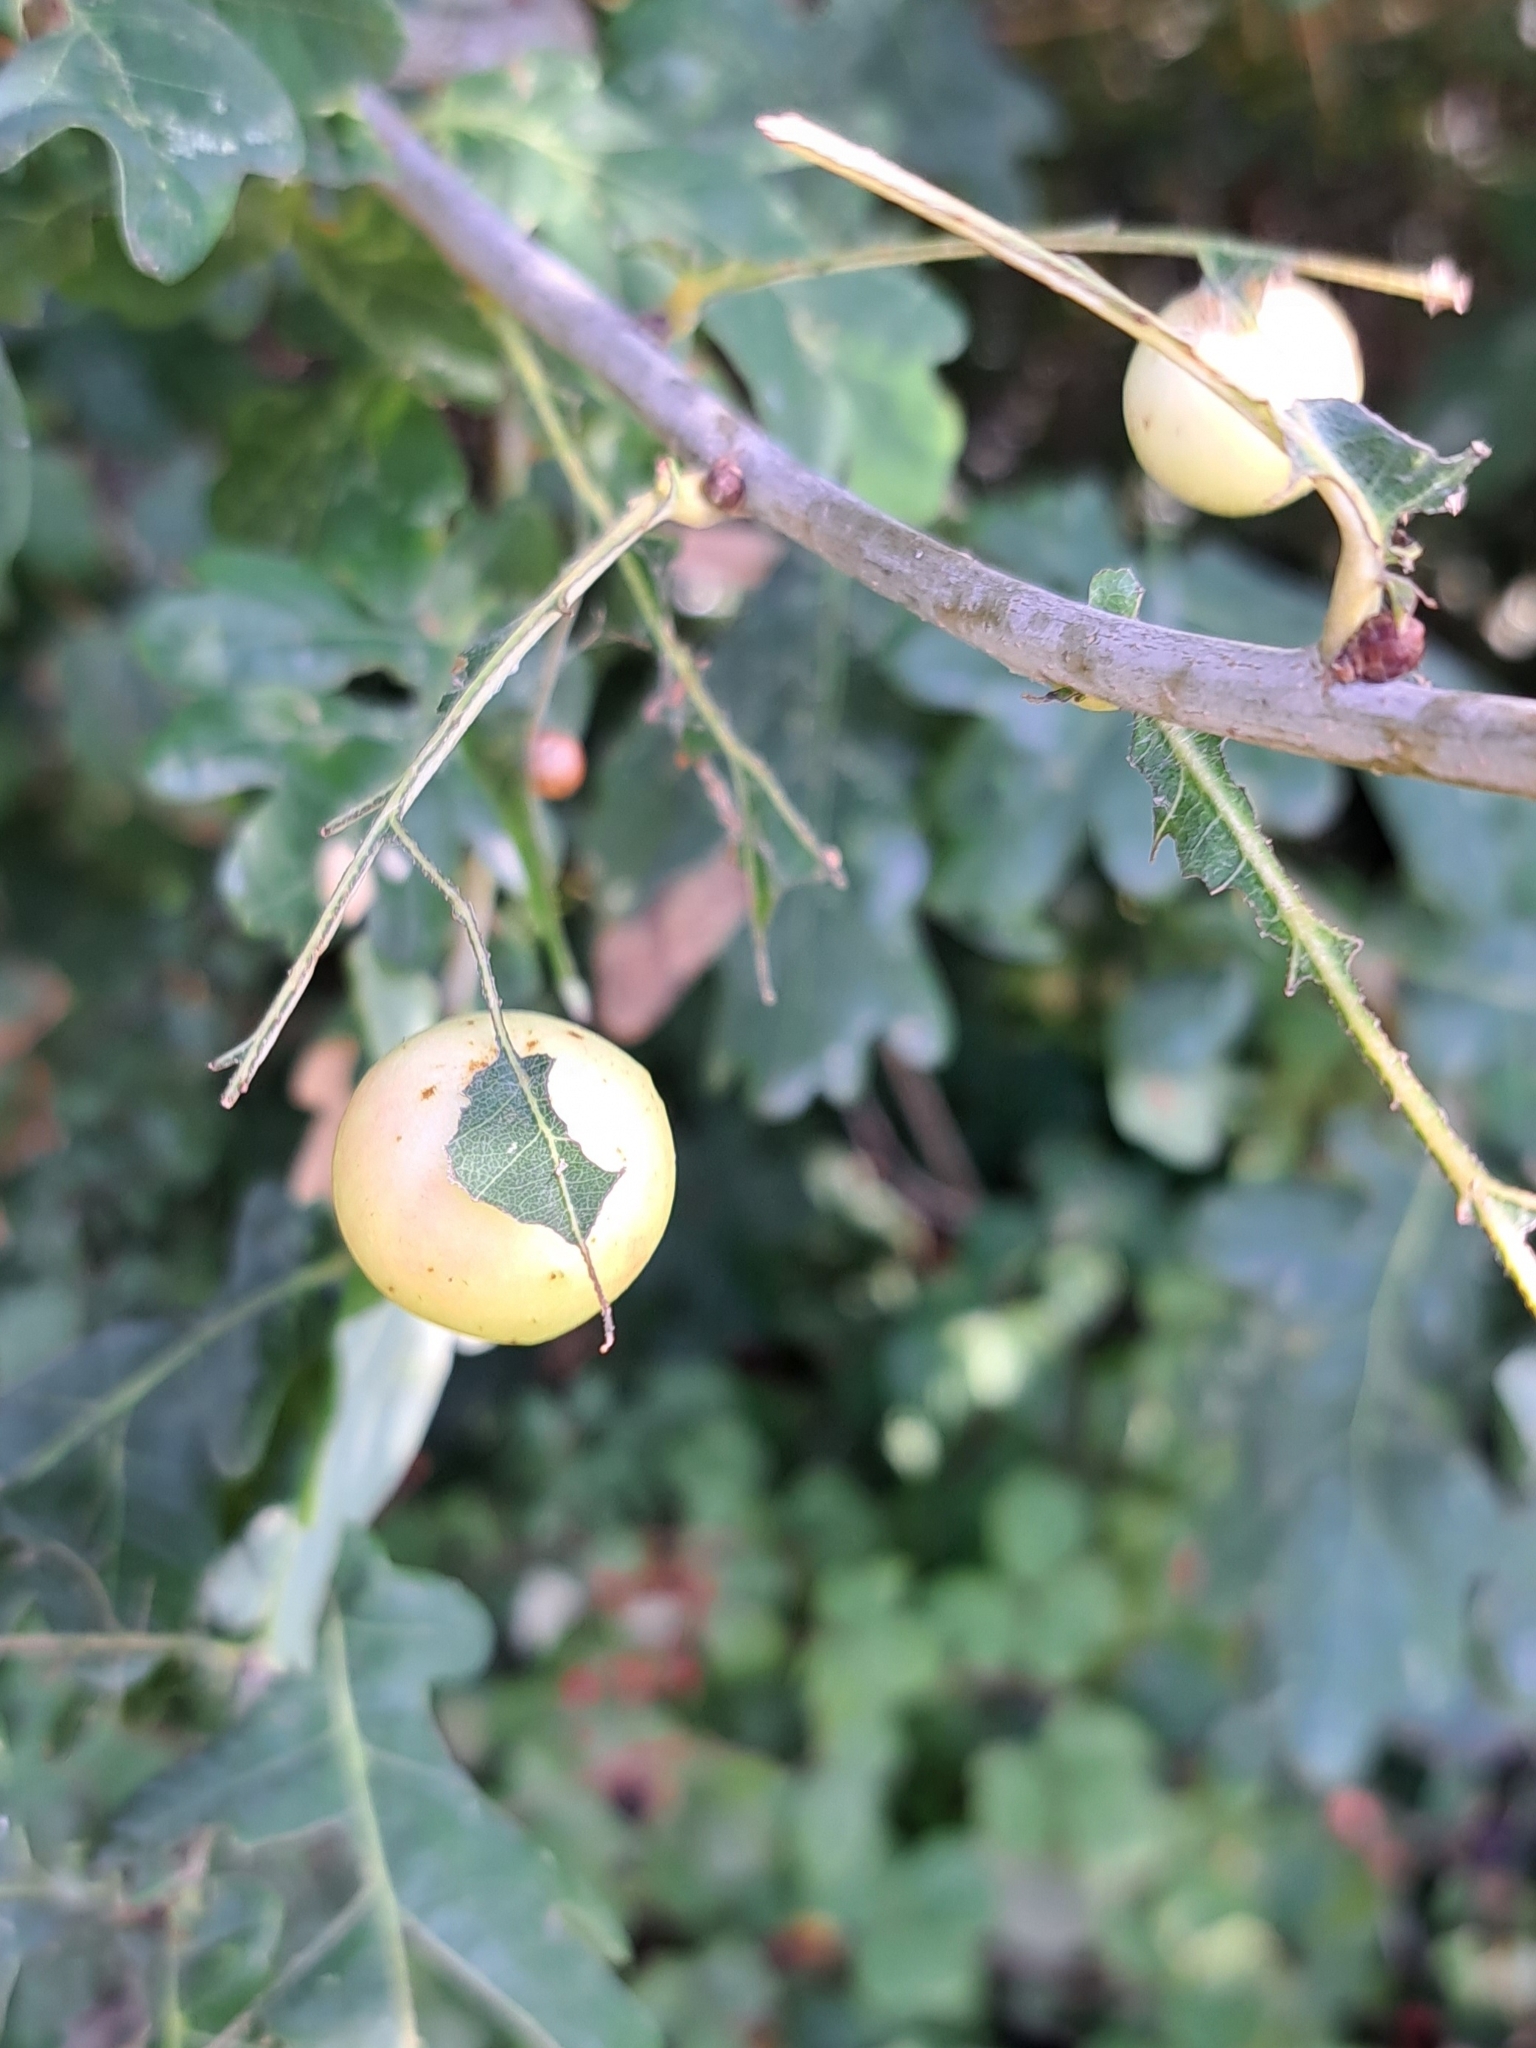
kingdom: Animalia
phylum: Arthropoda
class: Insecta
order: Hymenoptera
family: Cynipidae
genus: Cynips
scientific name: Cynips quercusfolii
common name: Cherry gall
